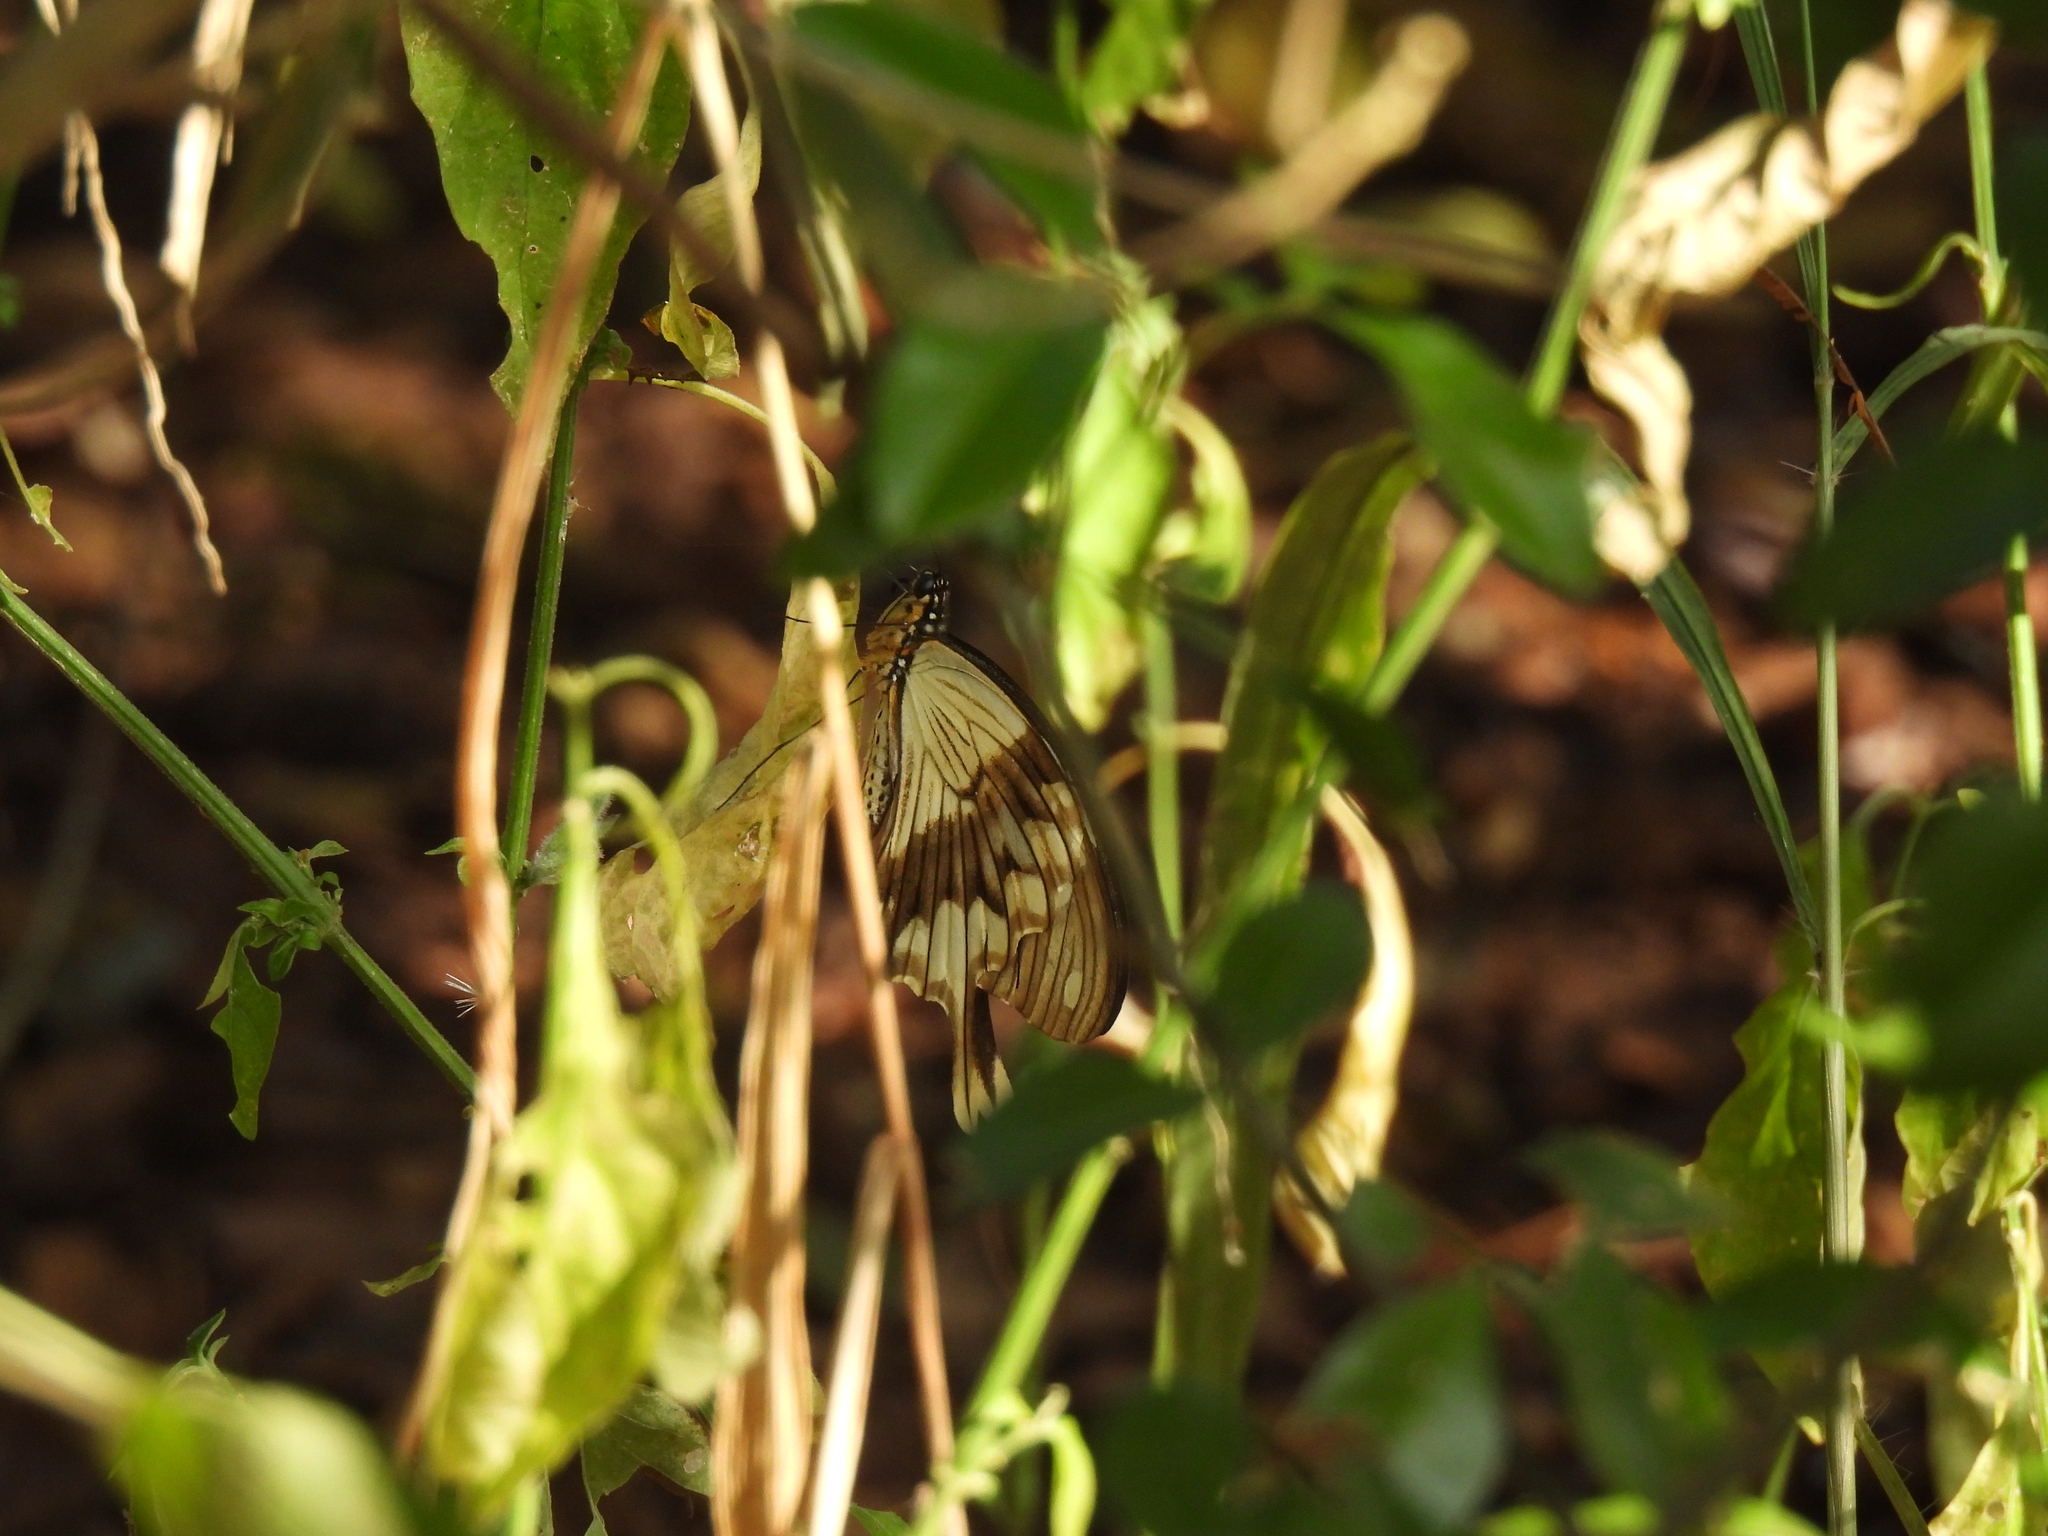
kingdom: Animalia
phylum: Arthropoda
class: Insecta
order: Lepidoptera
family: Papilionidae
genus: Papilio
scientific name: Papilio dardanus
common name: Flying handkerchief
